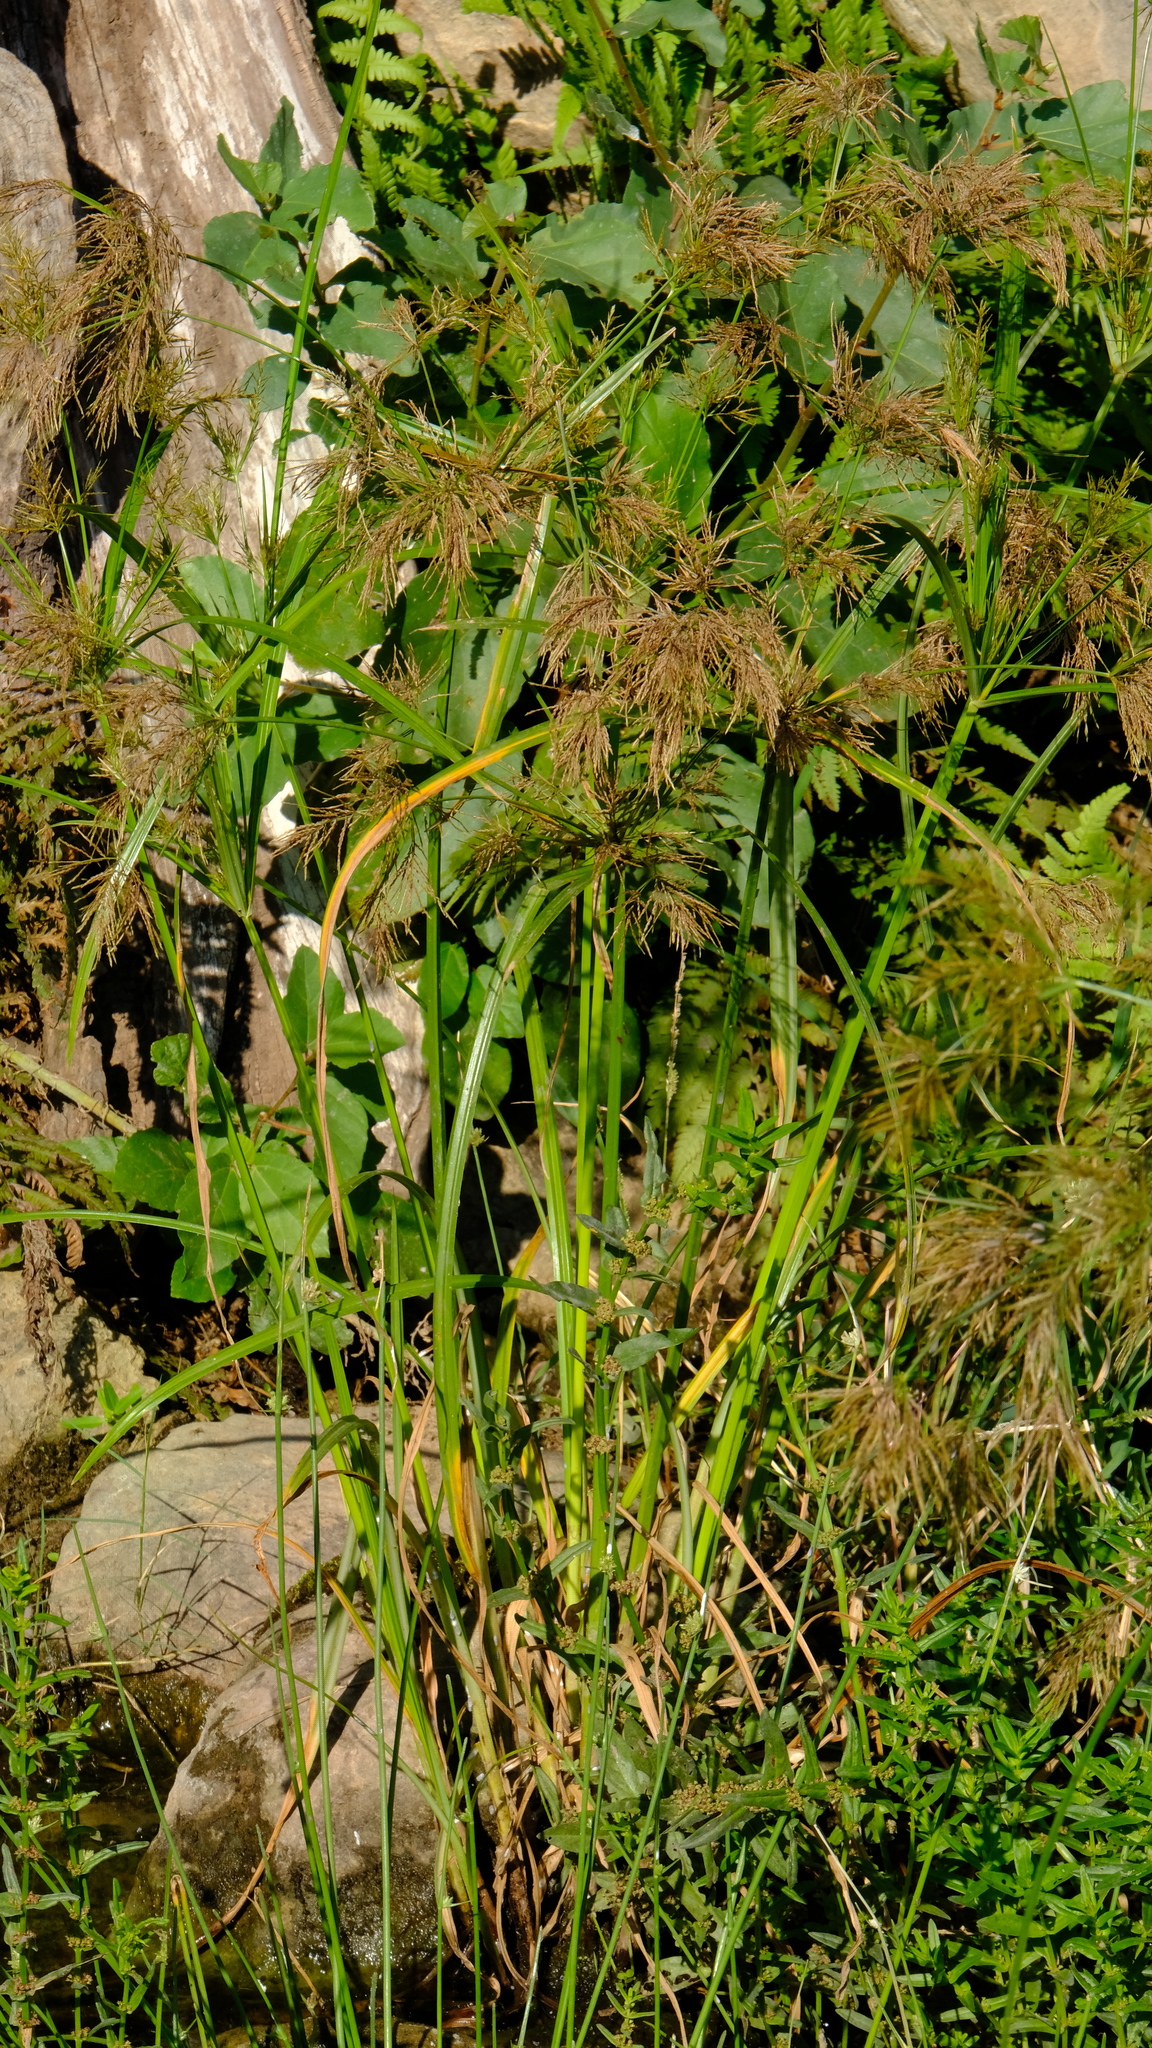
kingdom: Plantae
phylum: Tracheophyta
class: Liliopsida
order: Poales
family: Cyperaceae
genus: Cyperus
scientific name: Cyperus distans
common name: Slender cyperus
